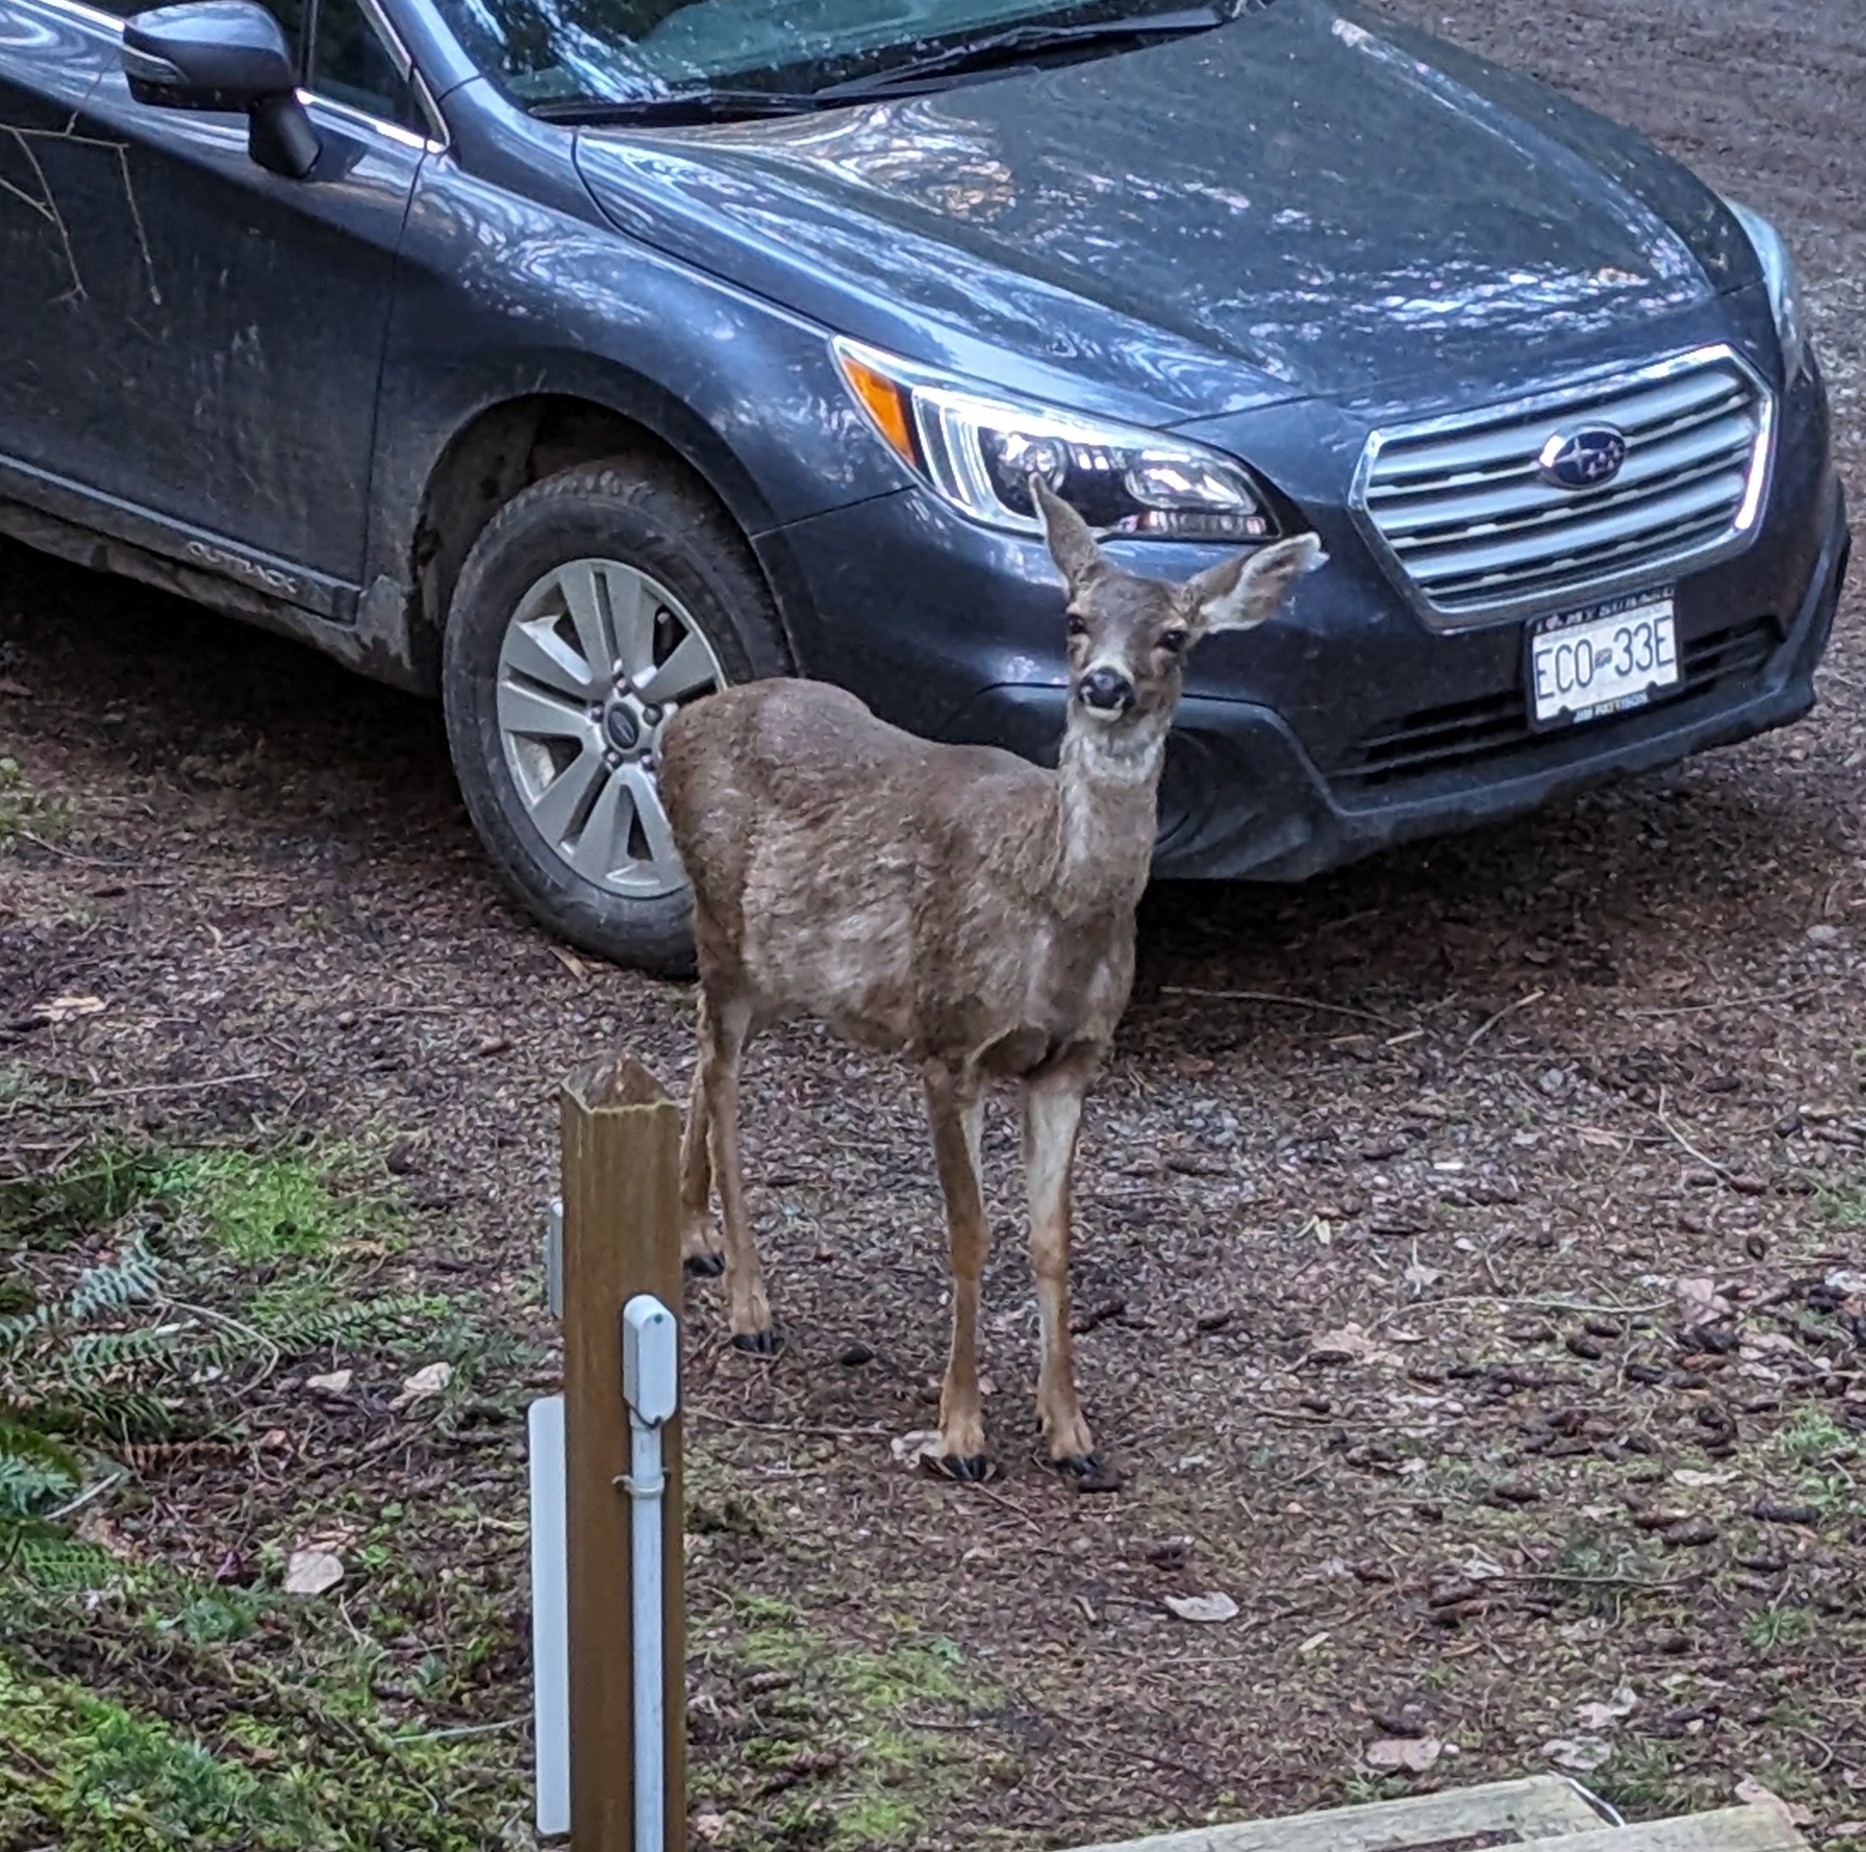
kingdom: Animalia
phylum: Chordata
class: Mammalia
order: Artiodactyla
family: Cervidae
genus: Odocoileus
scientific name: Odocoileus hemionus
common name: Mule deer
